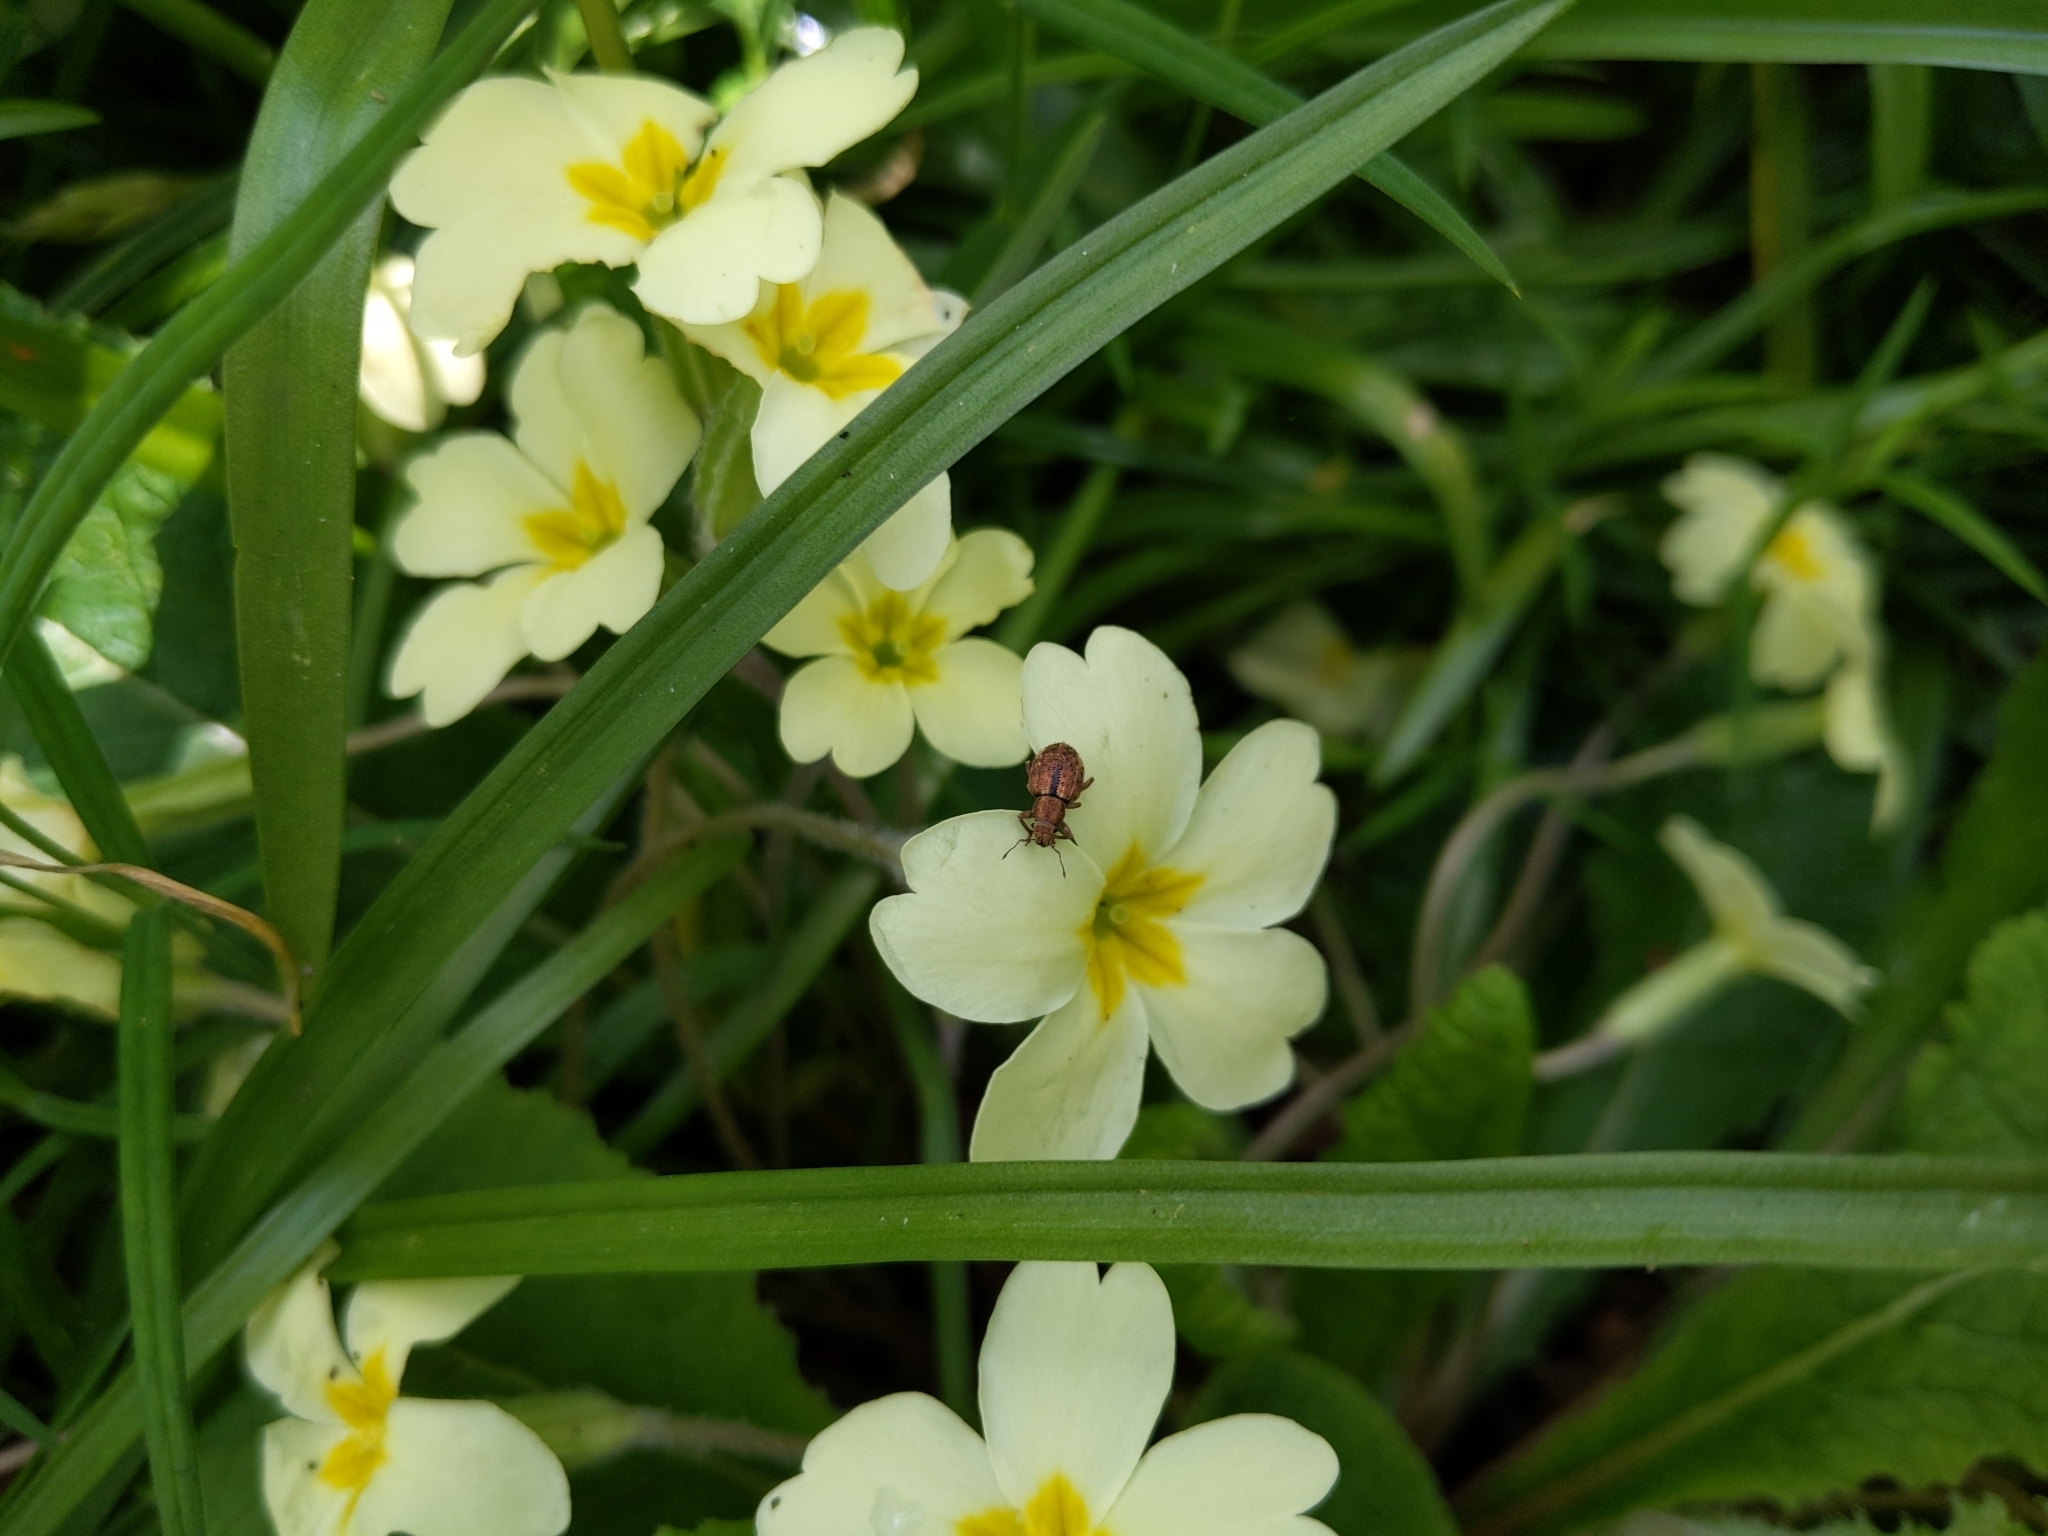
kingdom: Animalia
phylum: Arthropoda
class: Insecta
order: Coleoptera
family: Curculionidae
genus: Strophosoma
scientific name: Strophosoma melanogrammum
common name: Weevil
